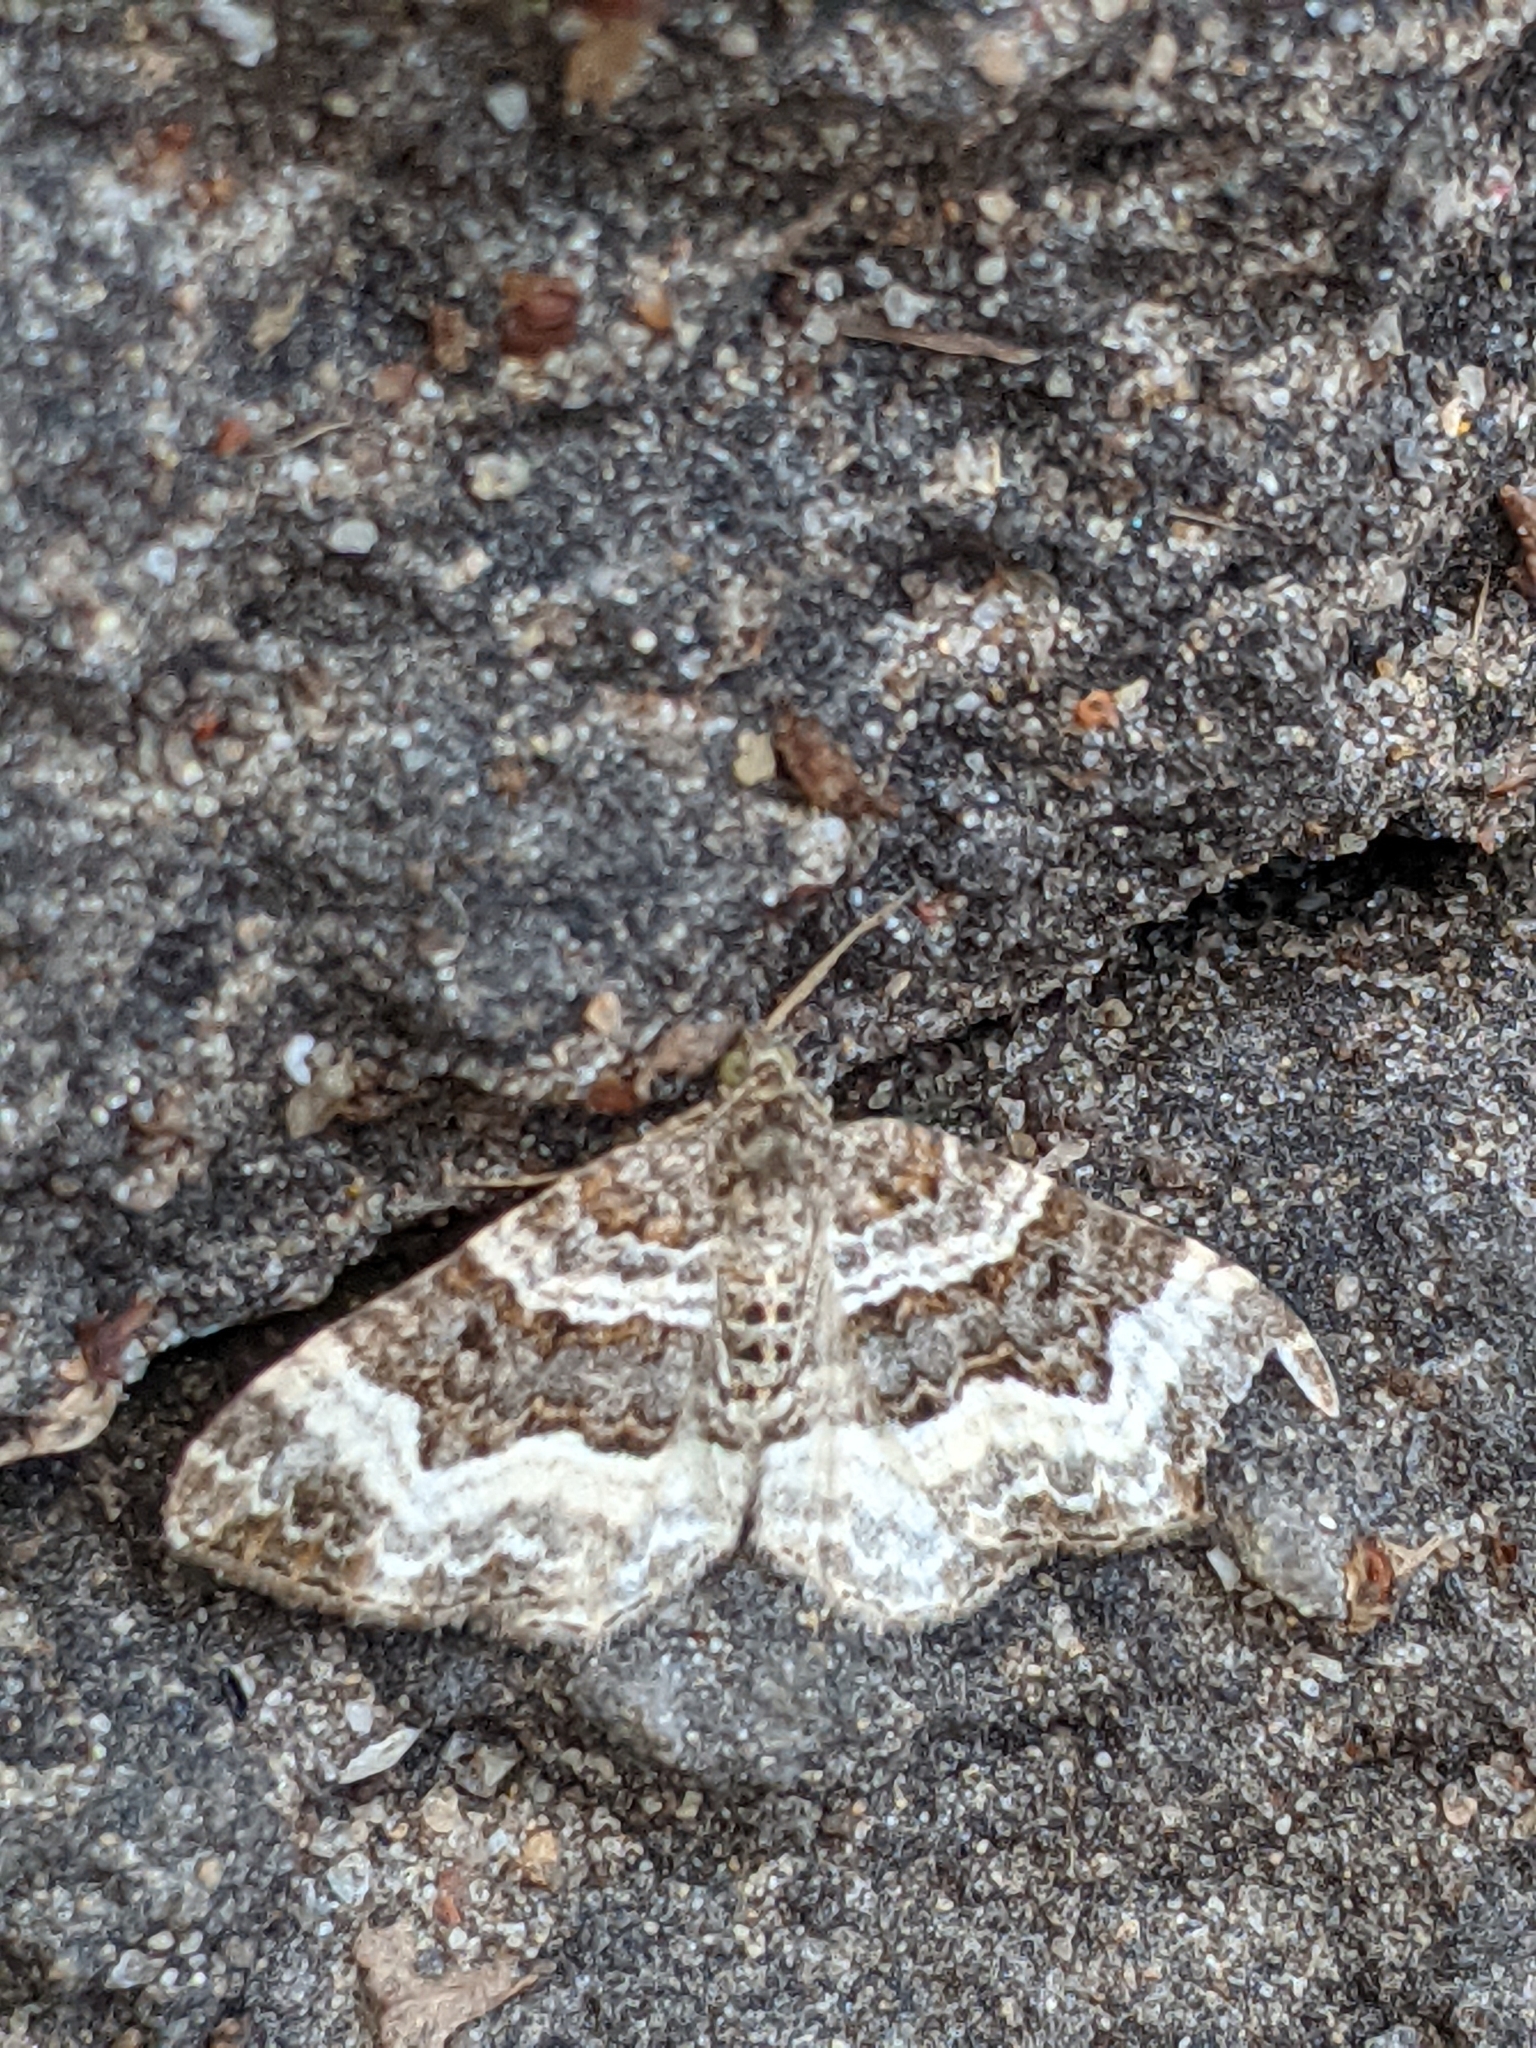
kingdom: Animalia
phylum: Arthropoda
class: Insecta
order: Lepidoptera
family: Geometridae
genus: Epirrhoe
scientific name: Epirrhoe alternata
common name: Common carpet
